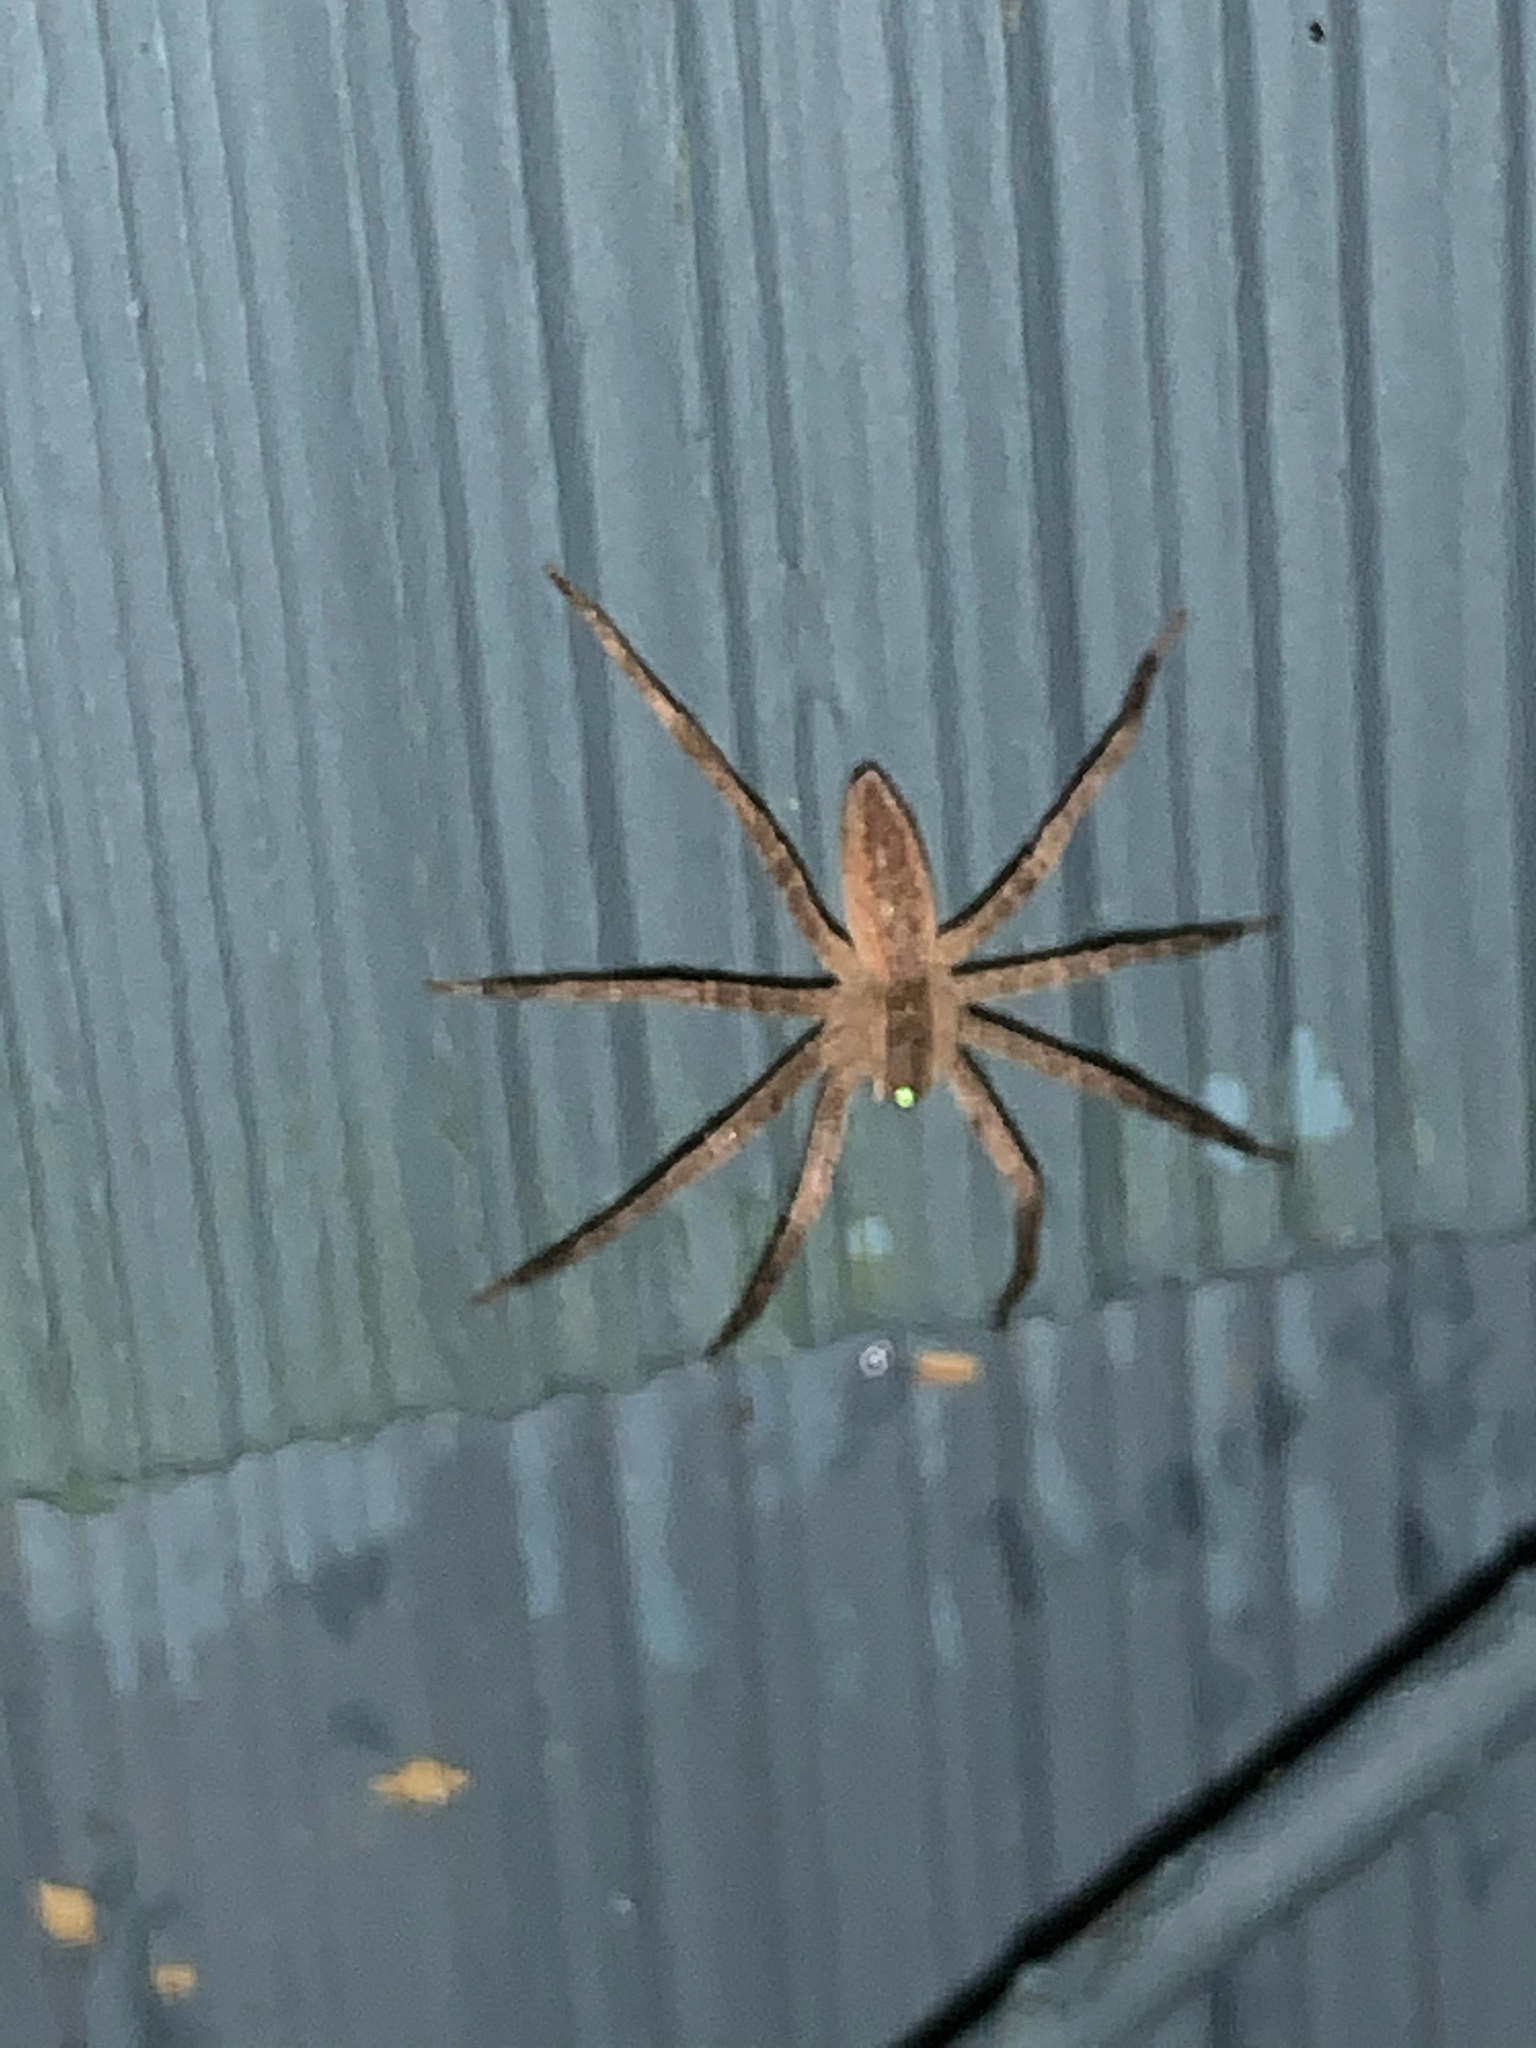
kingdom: Animalia
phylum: Arthropoda
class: Arachnida
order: Araneae
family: Pisauridae
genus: Pisaurina
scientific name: Pisaurina mira
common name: American nursery web spider
